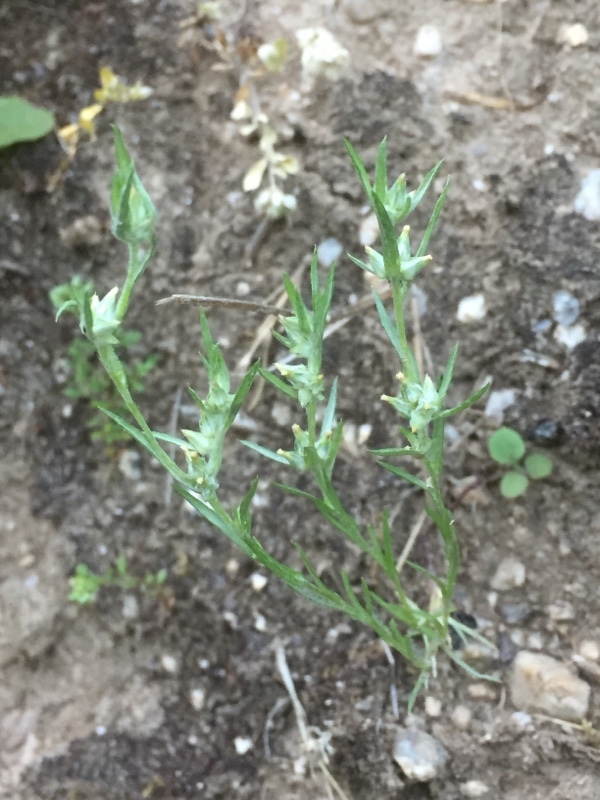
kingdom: Plantae
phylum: Tracheophyta
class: Magnoliopsida
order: Asterales
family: Asteraceae
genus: Logfia
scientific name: Logfia gallica
